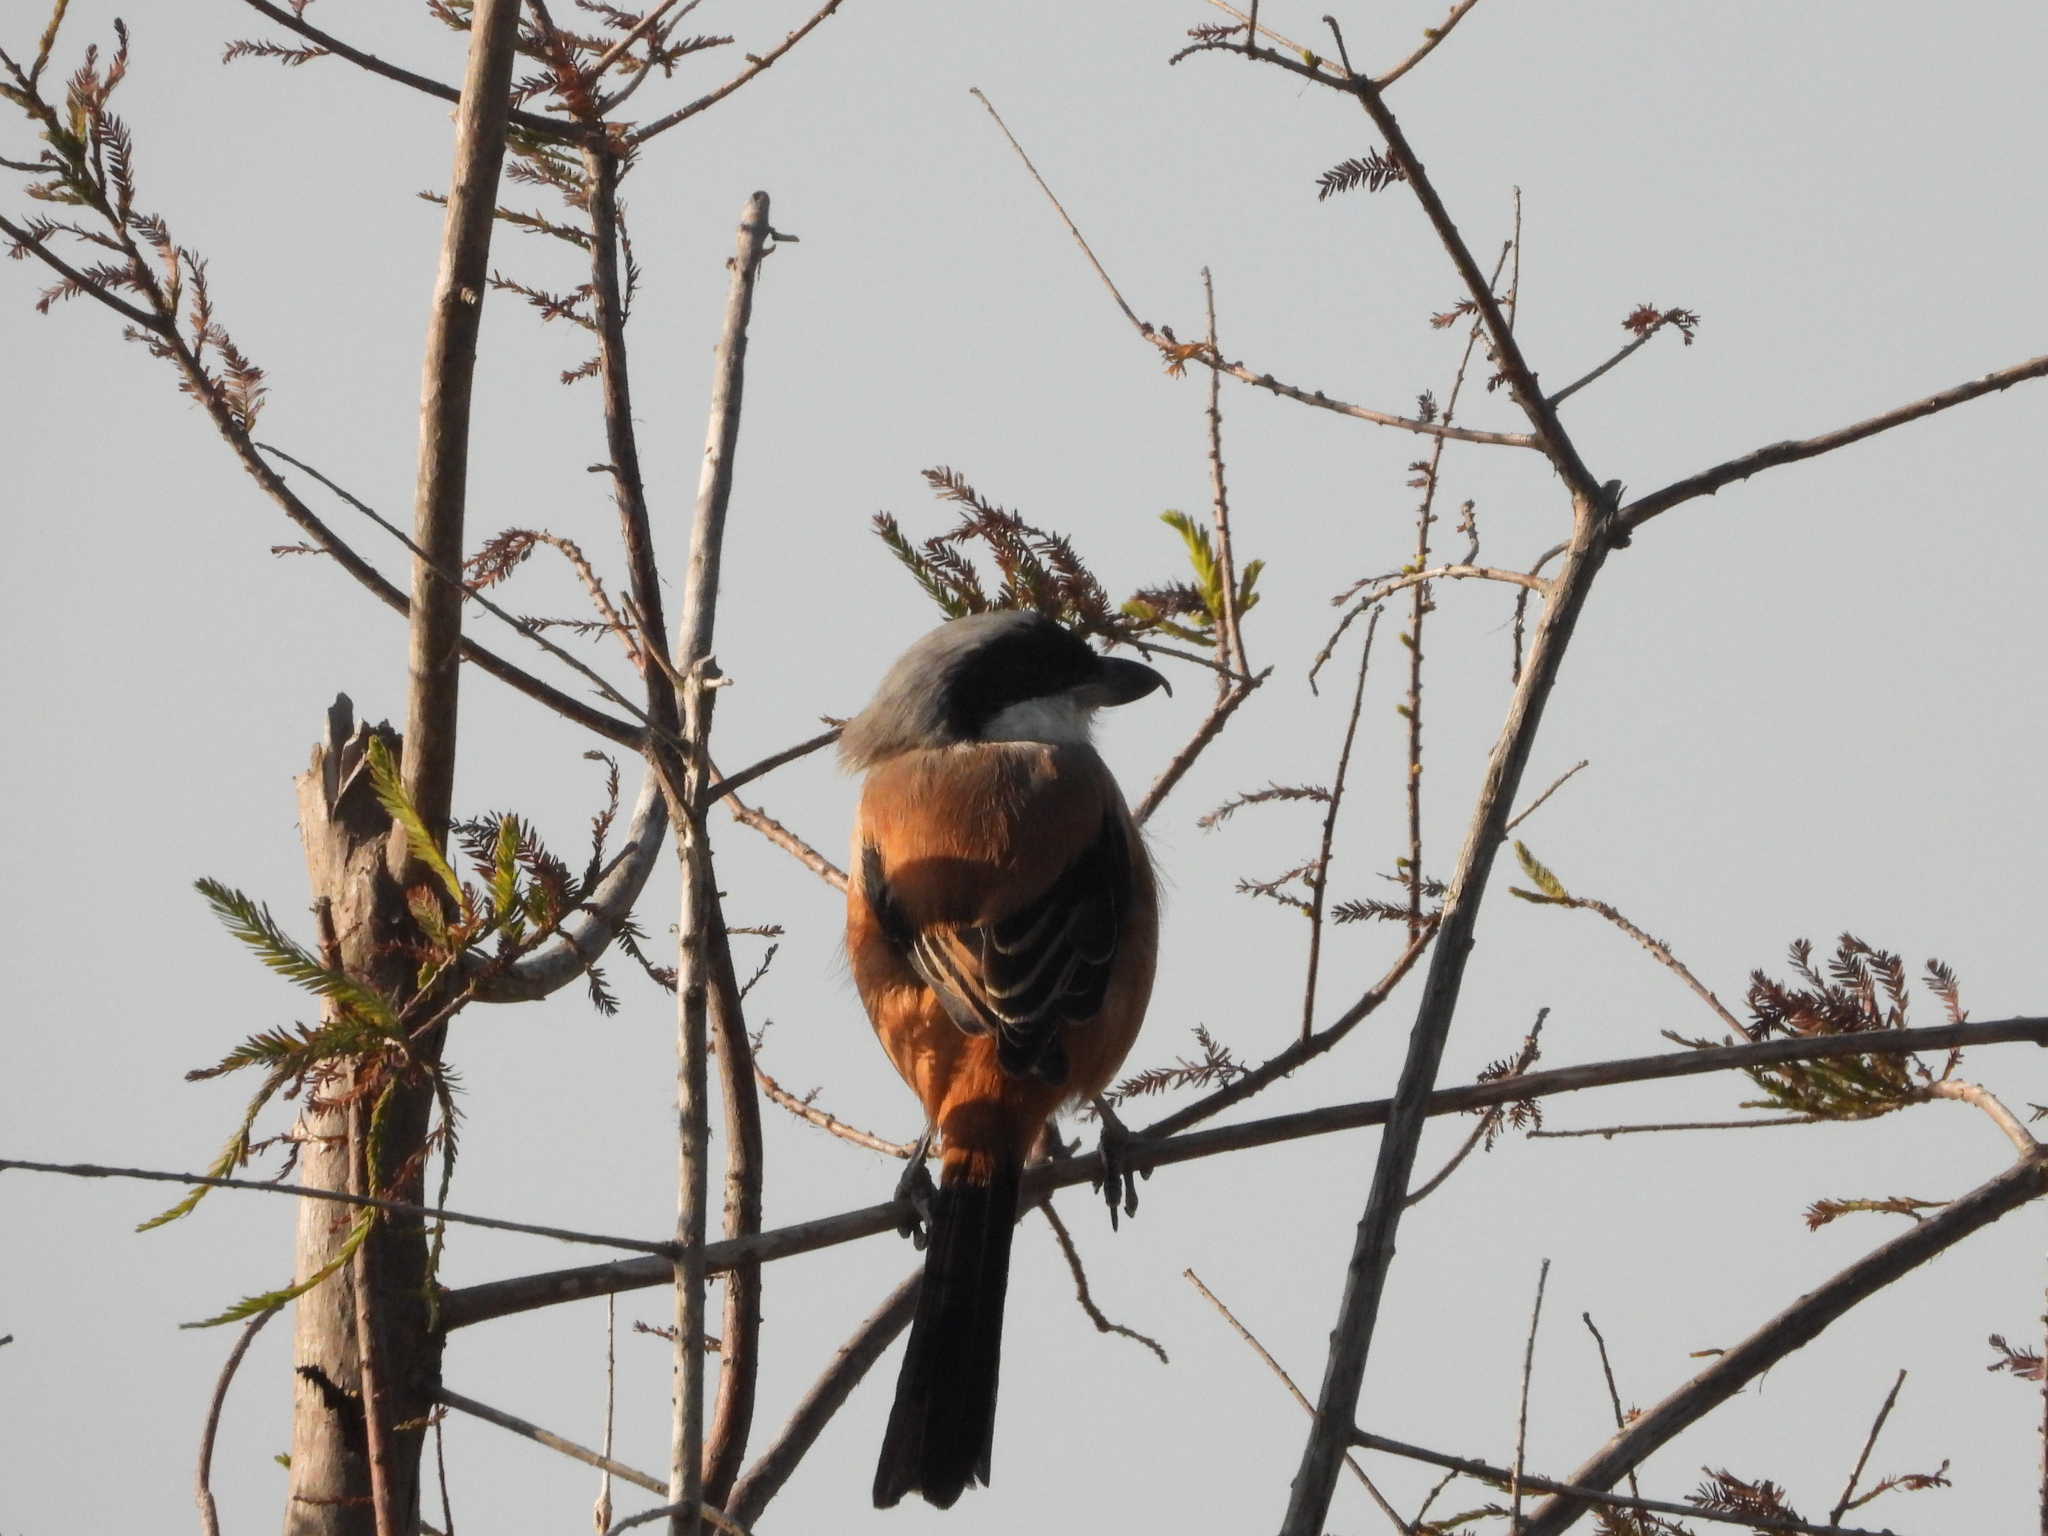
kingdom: Animalia
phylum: Chordata
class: Aves
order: Passeriformes
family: Laniidae
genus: Lanius
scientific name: Lanius schach
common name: Long-tailed shrike
